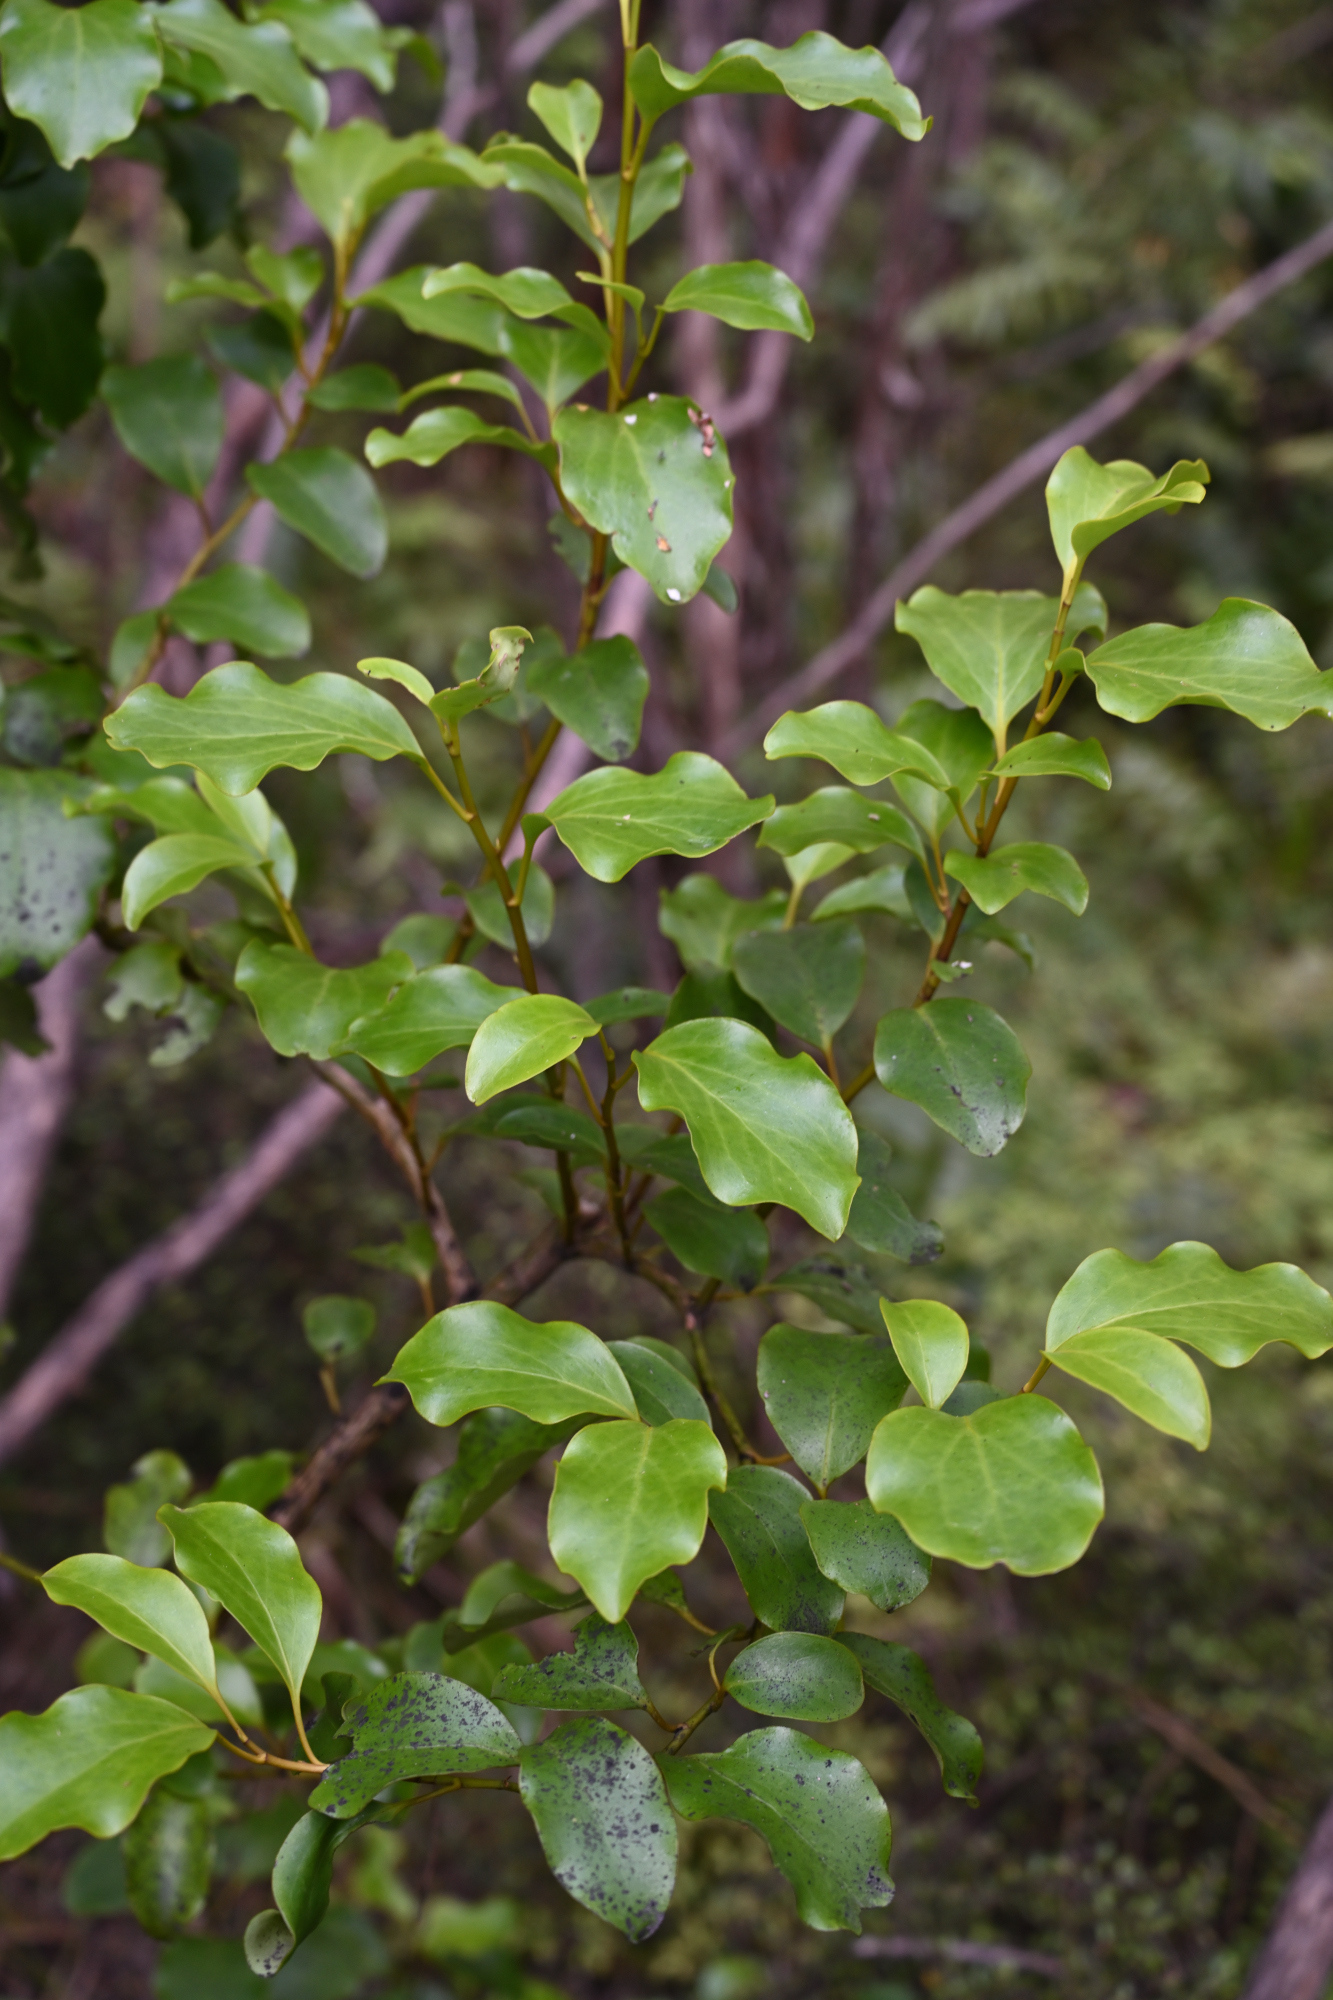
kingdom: Plantae
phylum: Tracheophyta
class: Magnoliopsida
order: Apiales
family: Griseliniaceae
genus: Griselinia
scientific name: Griselinia littoralis
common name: New zealand broadleaf
